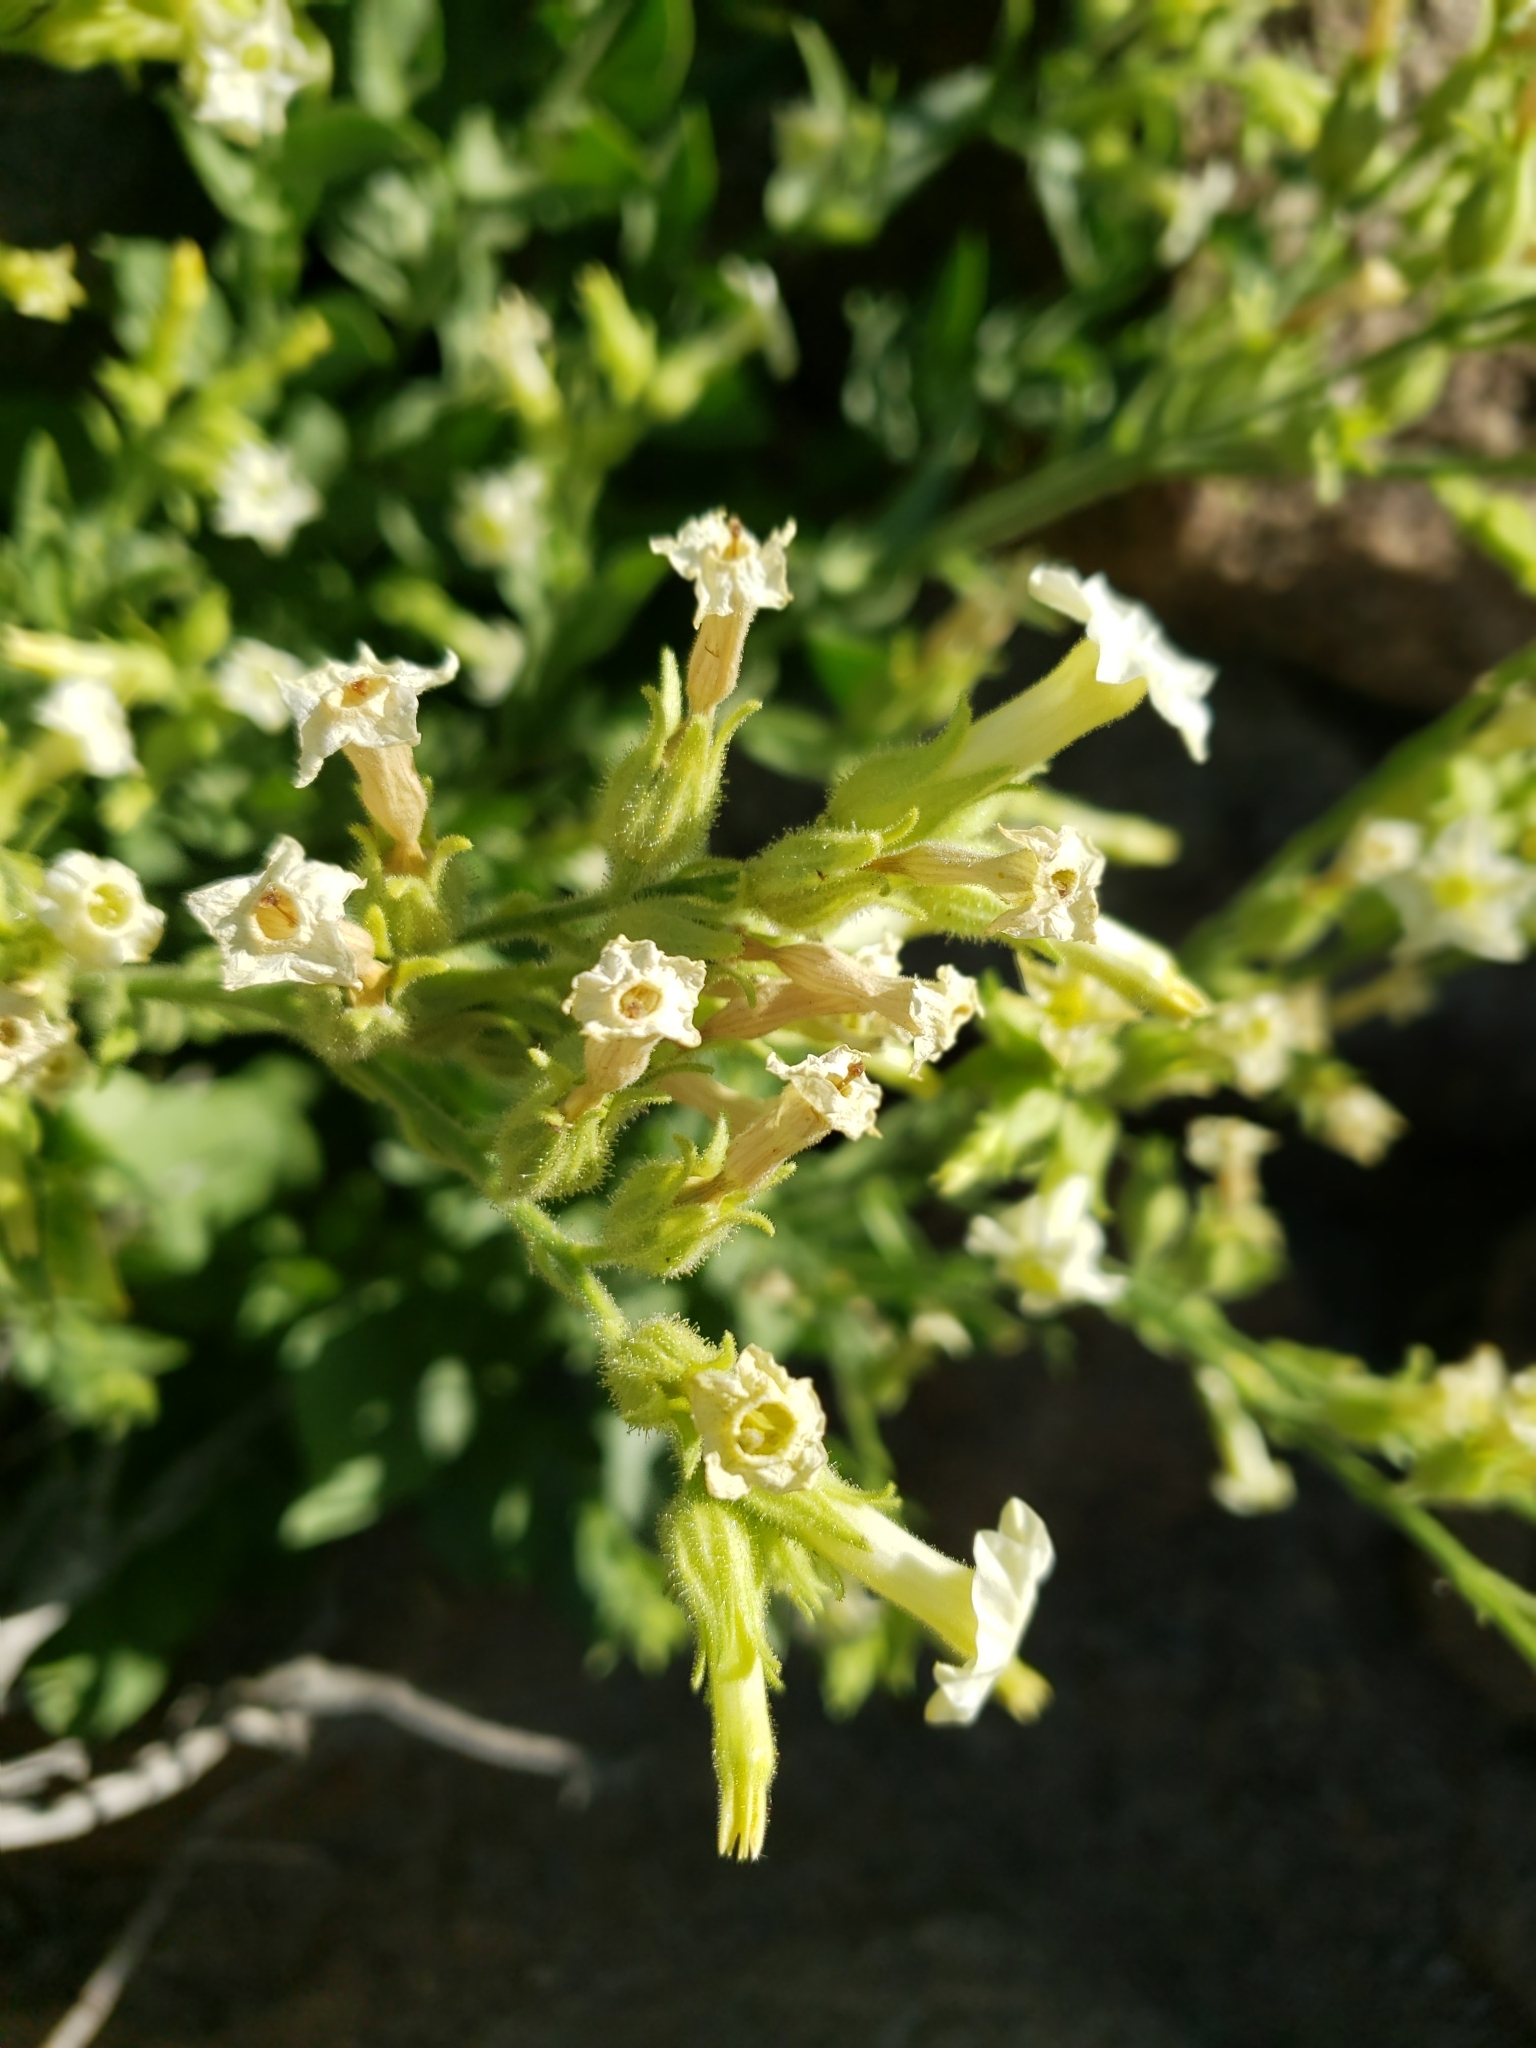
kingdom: Plantae
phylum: Tracheophyta
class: Magnoliopsida
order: Solanales
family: Solanaceae
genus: Nicotiana
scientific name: Nicotiana obtusifolia
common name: Desert tobacco
